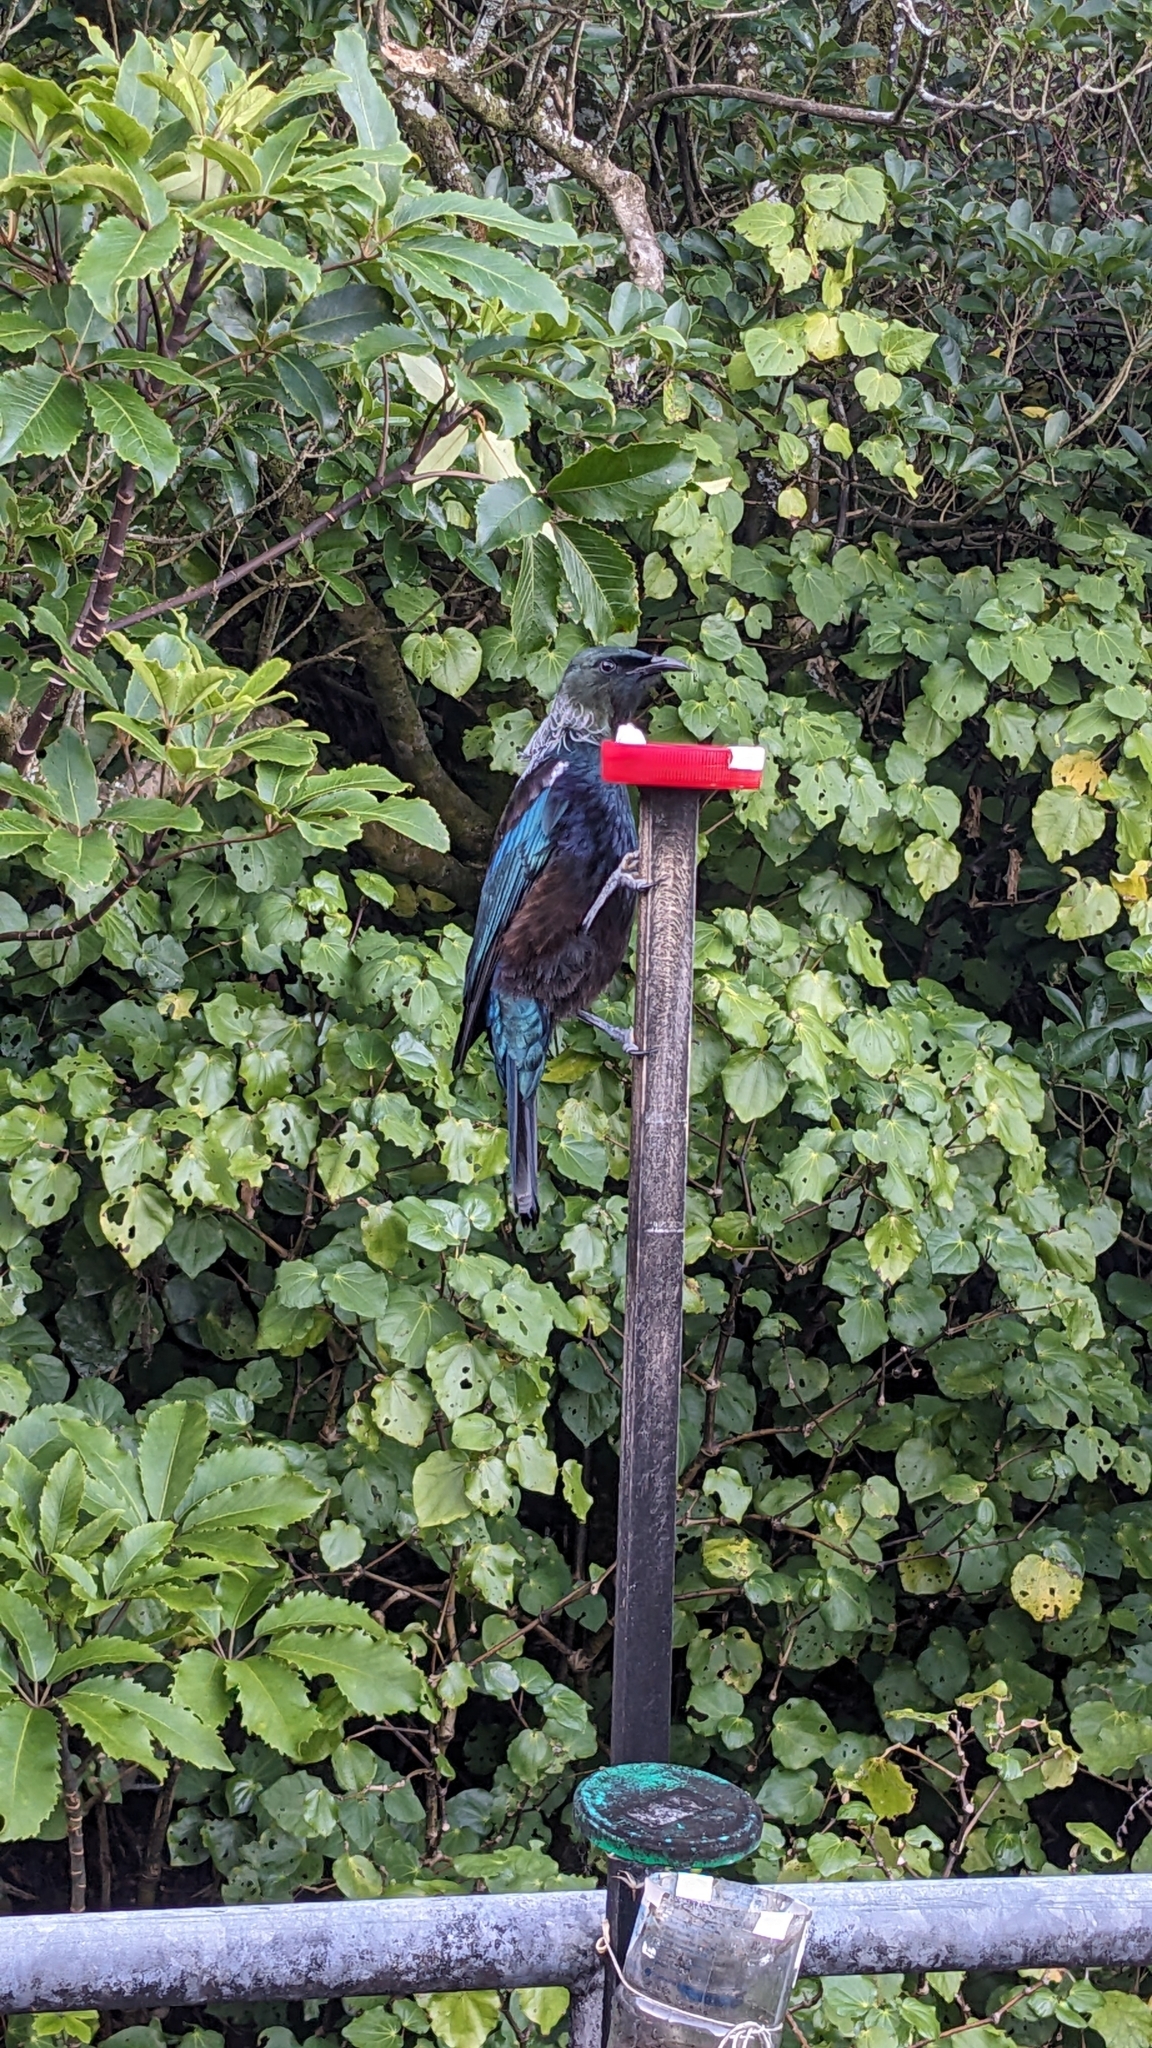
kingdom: Animalia
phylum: Chordata
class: Aves
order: Passeriformes
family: Meliphagidae
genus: Prosthemadera
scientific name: Prosthemadera novaeseelandiae
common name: Tui
